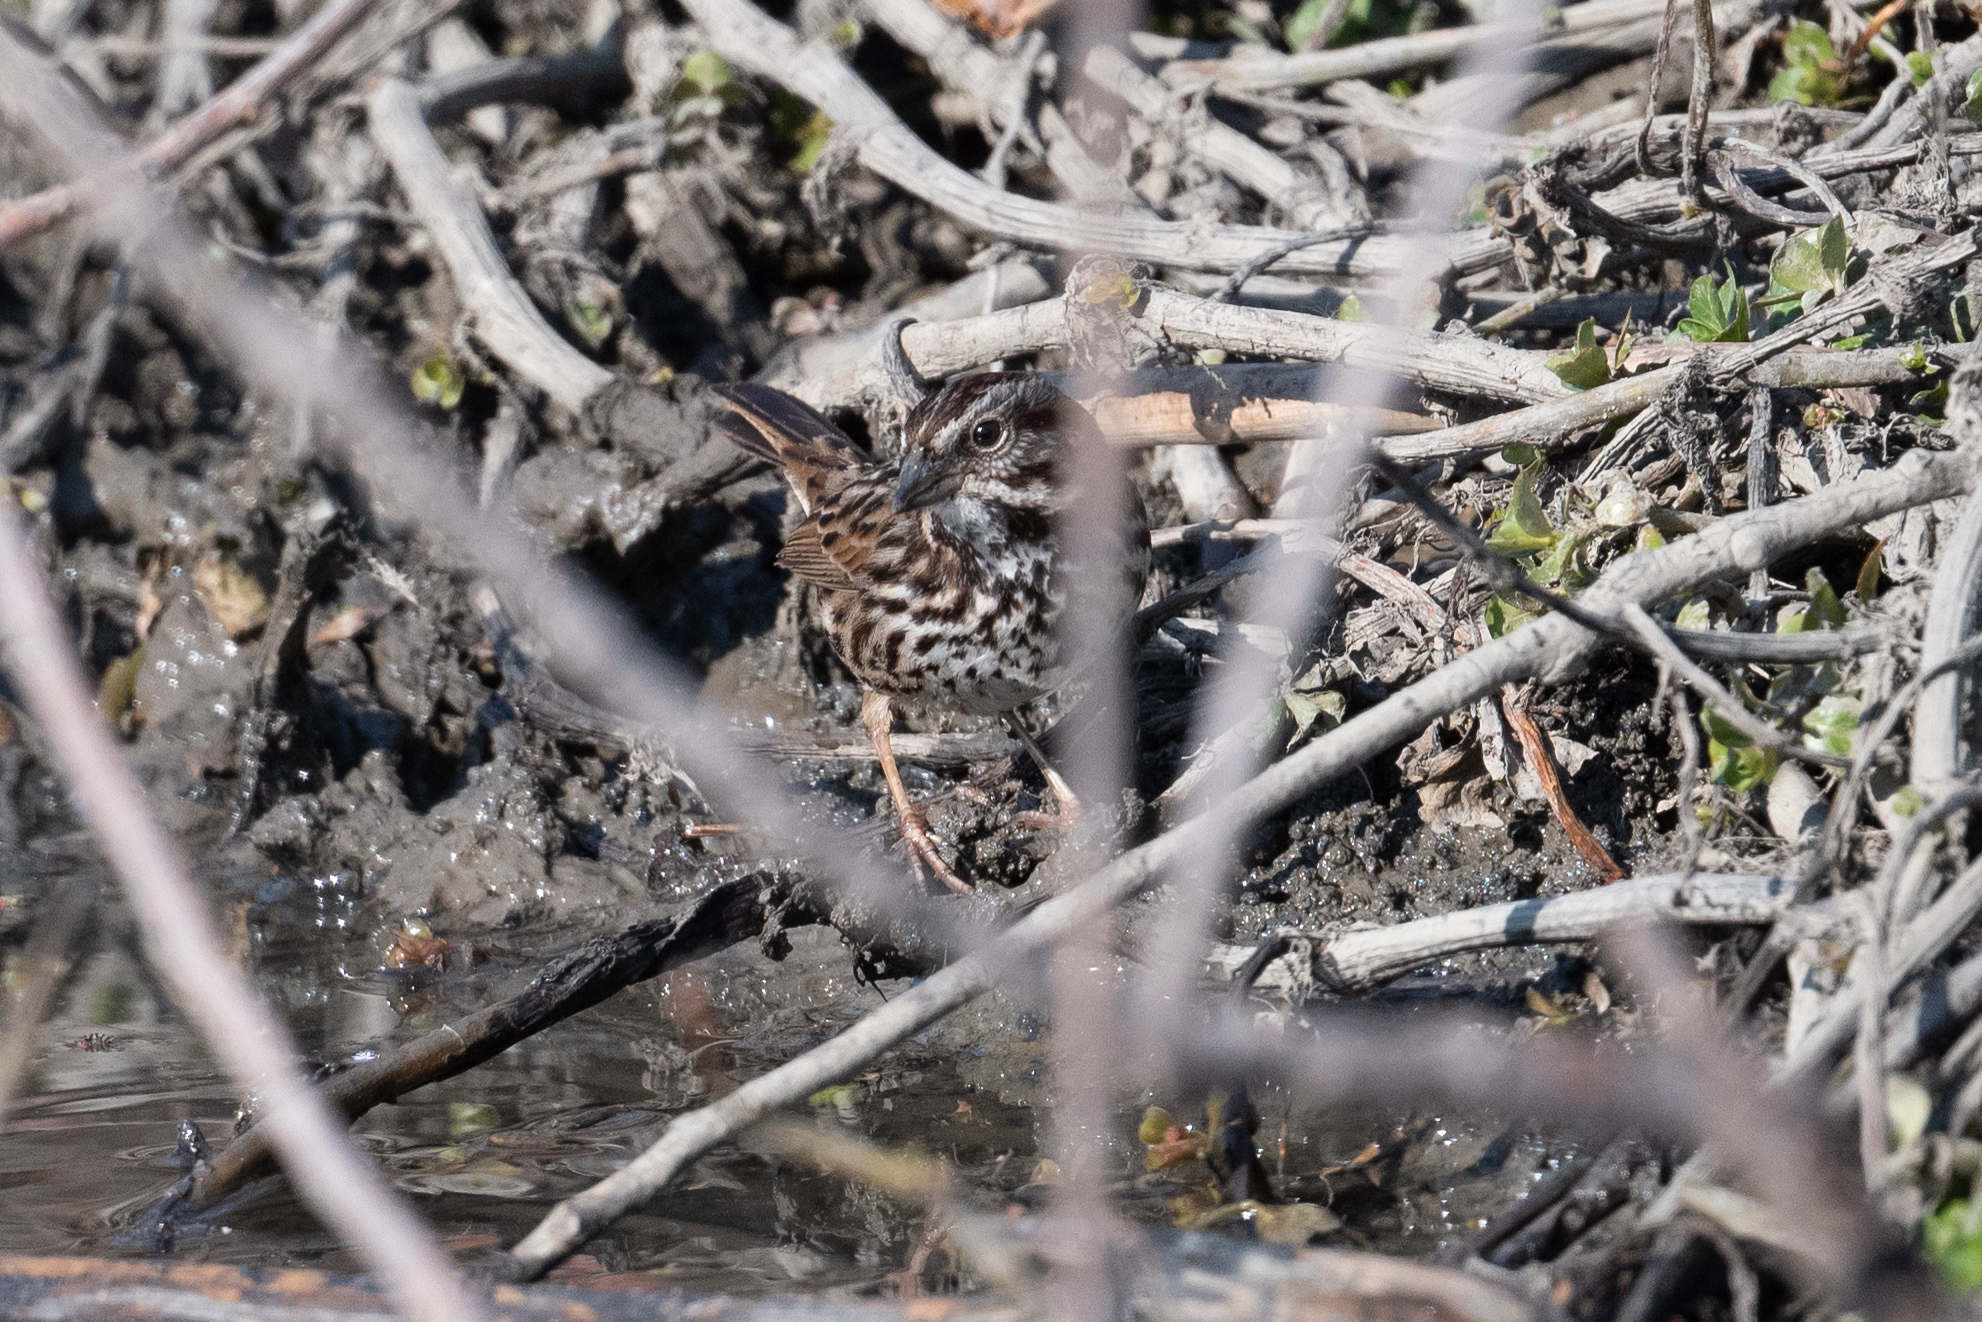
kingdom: Animalia
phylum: Chordata
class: Aves
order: Passeriformes
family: Passerellidae
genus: Melospiza
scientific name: Melospiza melodia
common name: Song sparrow
